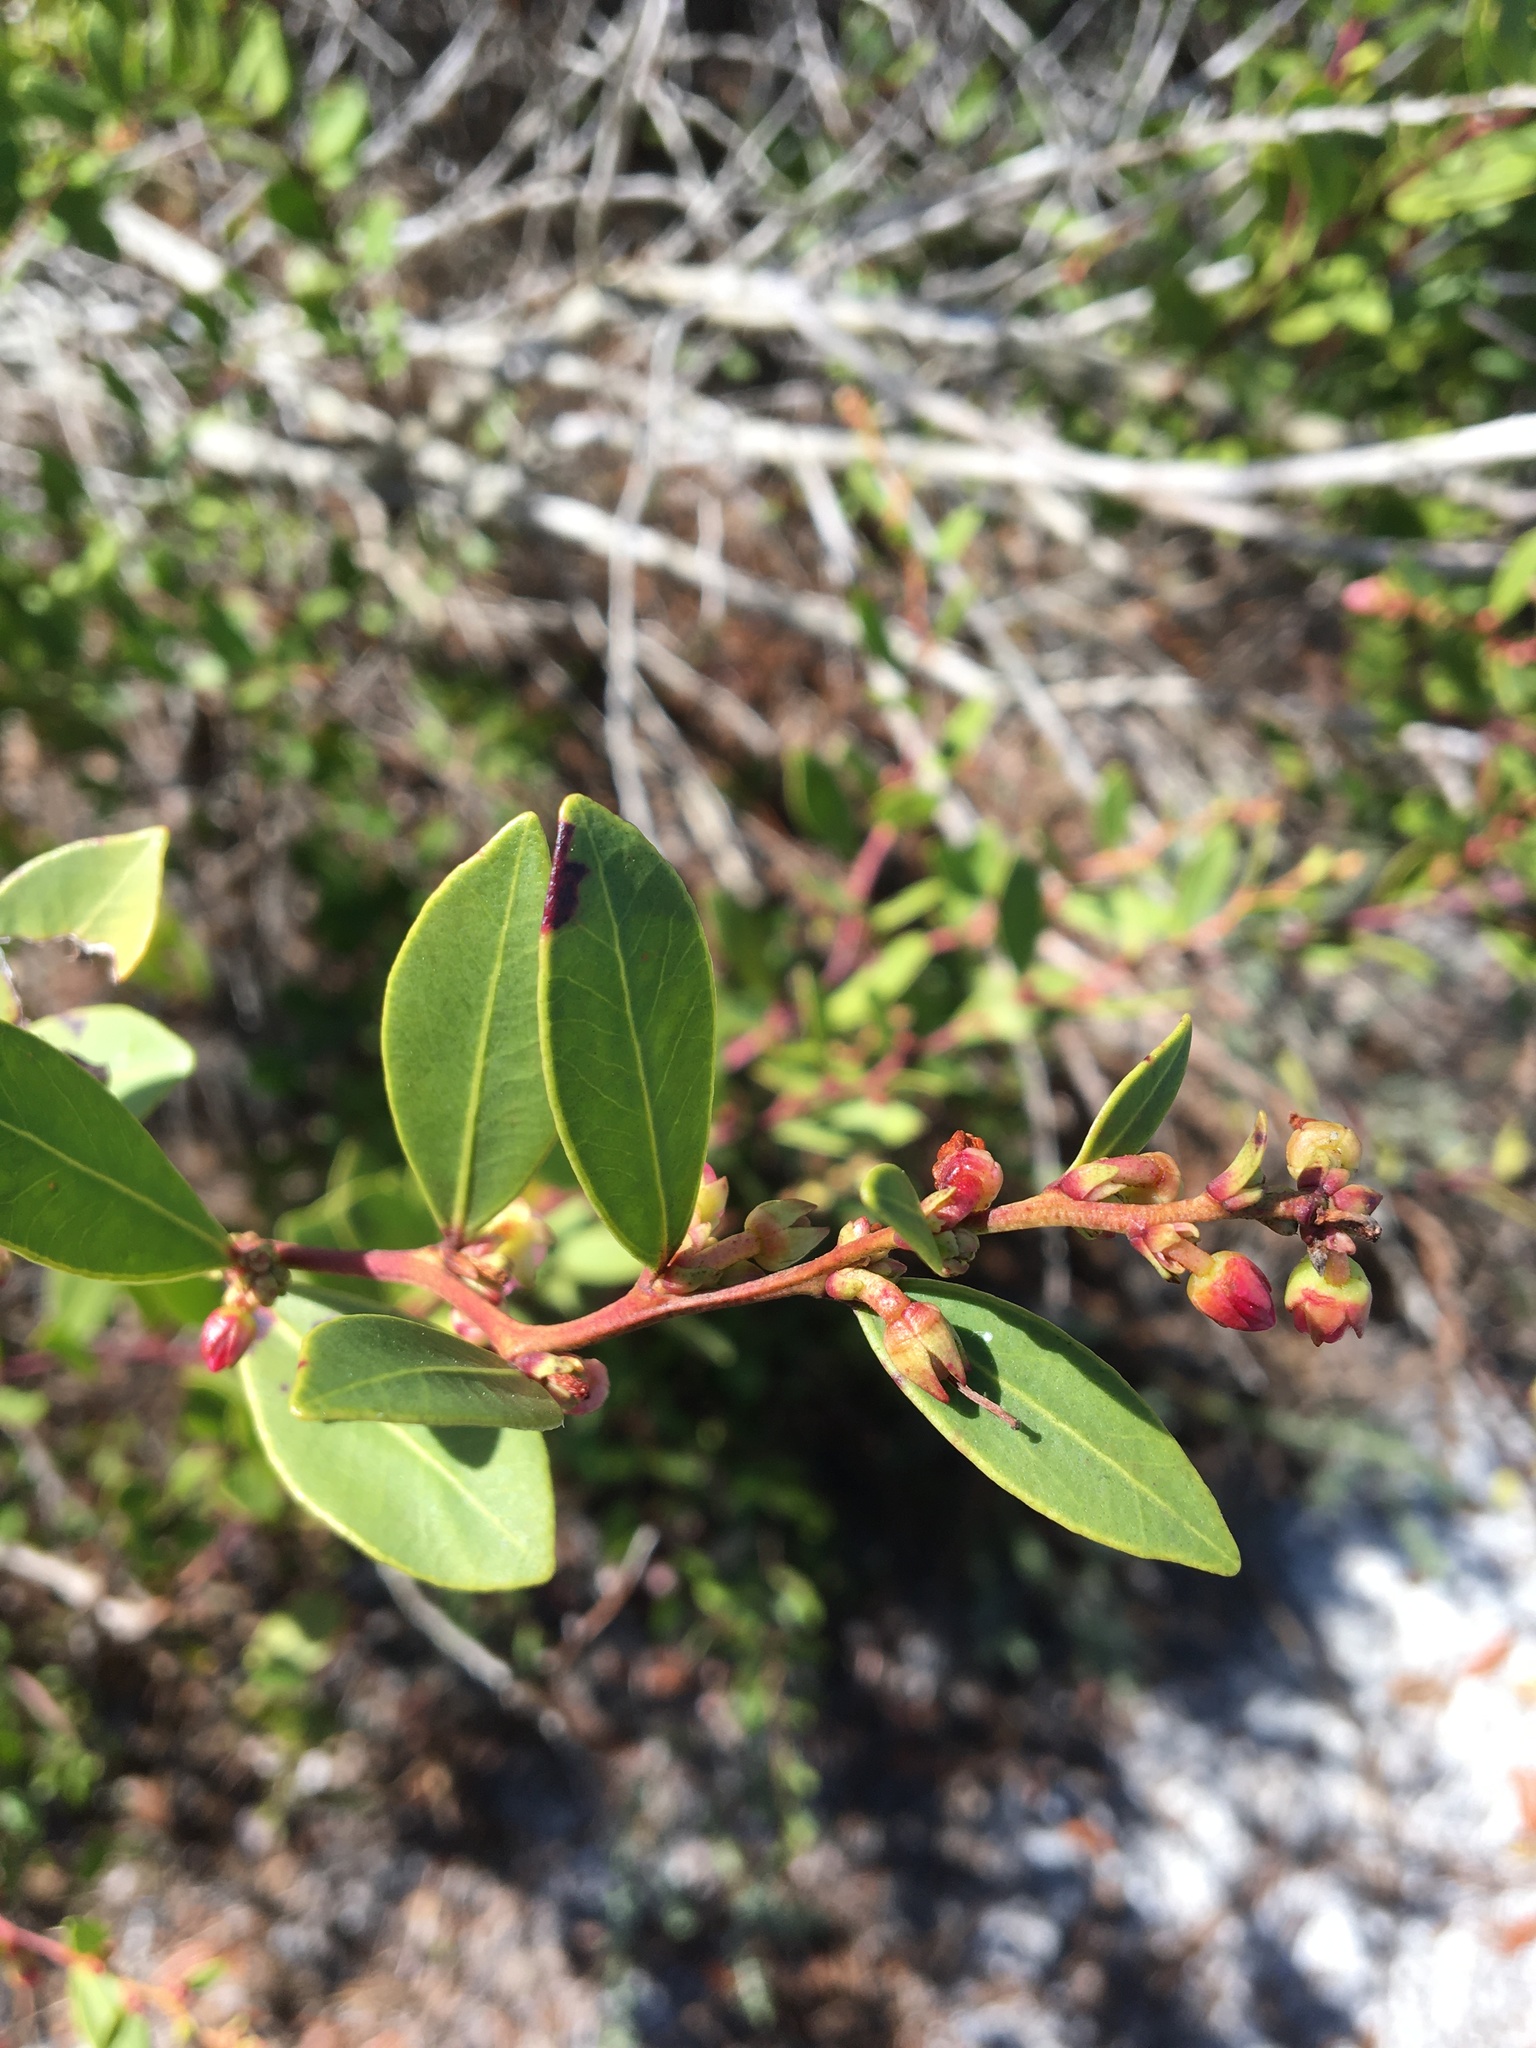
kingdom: Plantae
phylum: Tracheophyta
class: Magnoliopsida
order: Ericales
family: Ericaceae
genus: Lyonia
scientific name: Lyonia lucida
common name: Fetterbush
